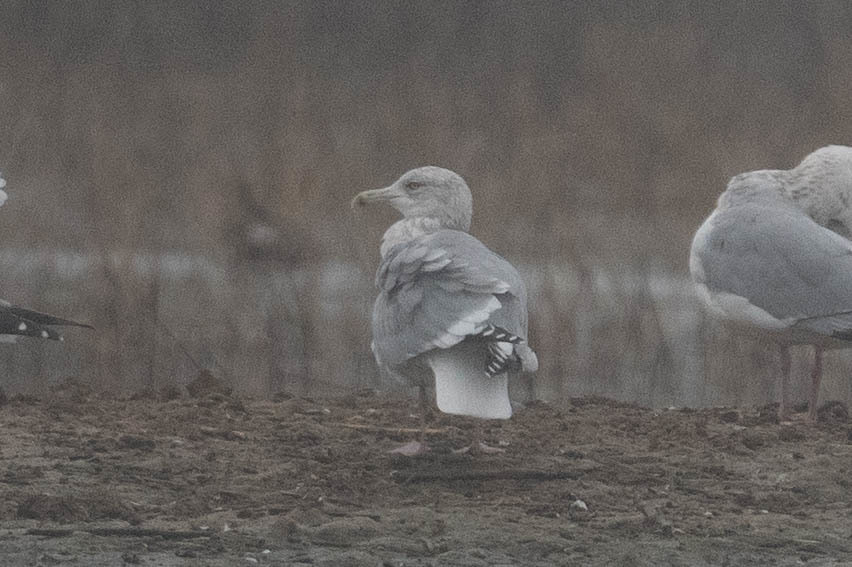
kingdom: Animalia
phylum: Chordata
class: Aves
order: Charadriiformes
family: Laridae
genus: Larus
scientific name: Larus argentatus
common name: Herring gull
